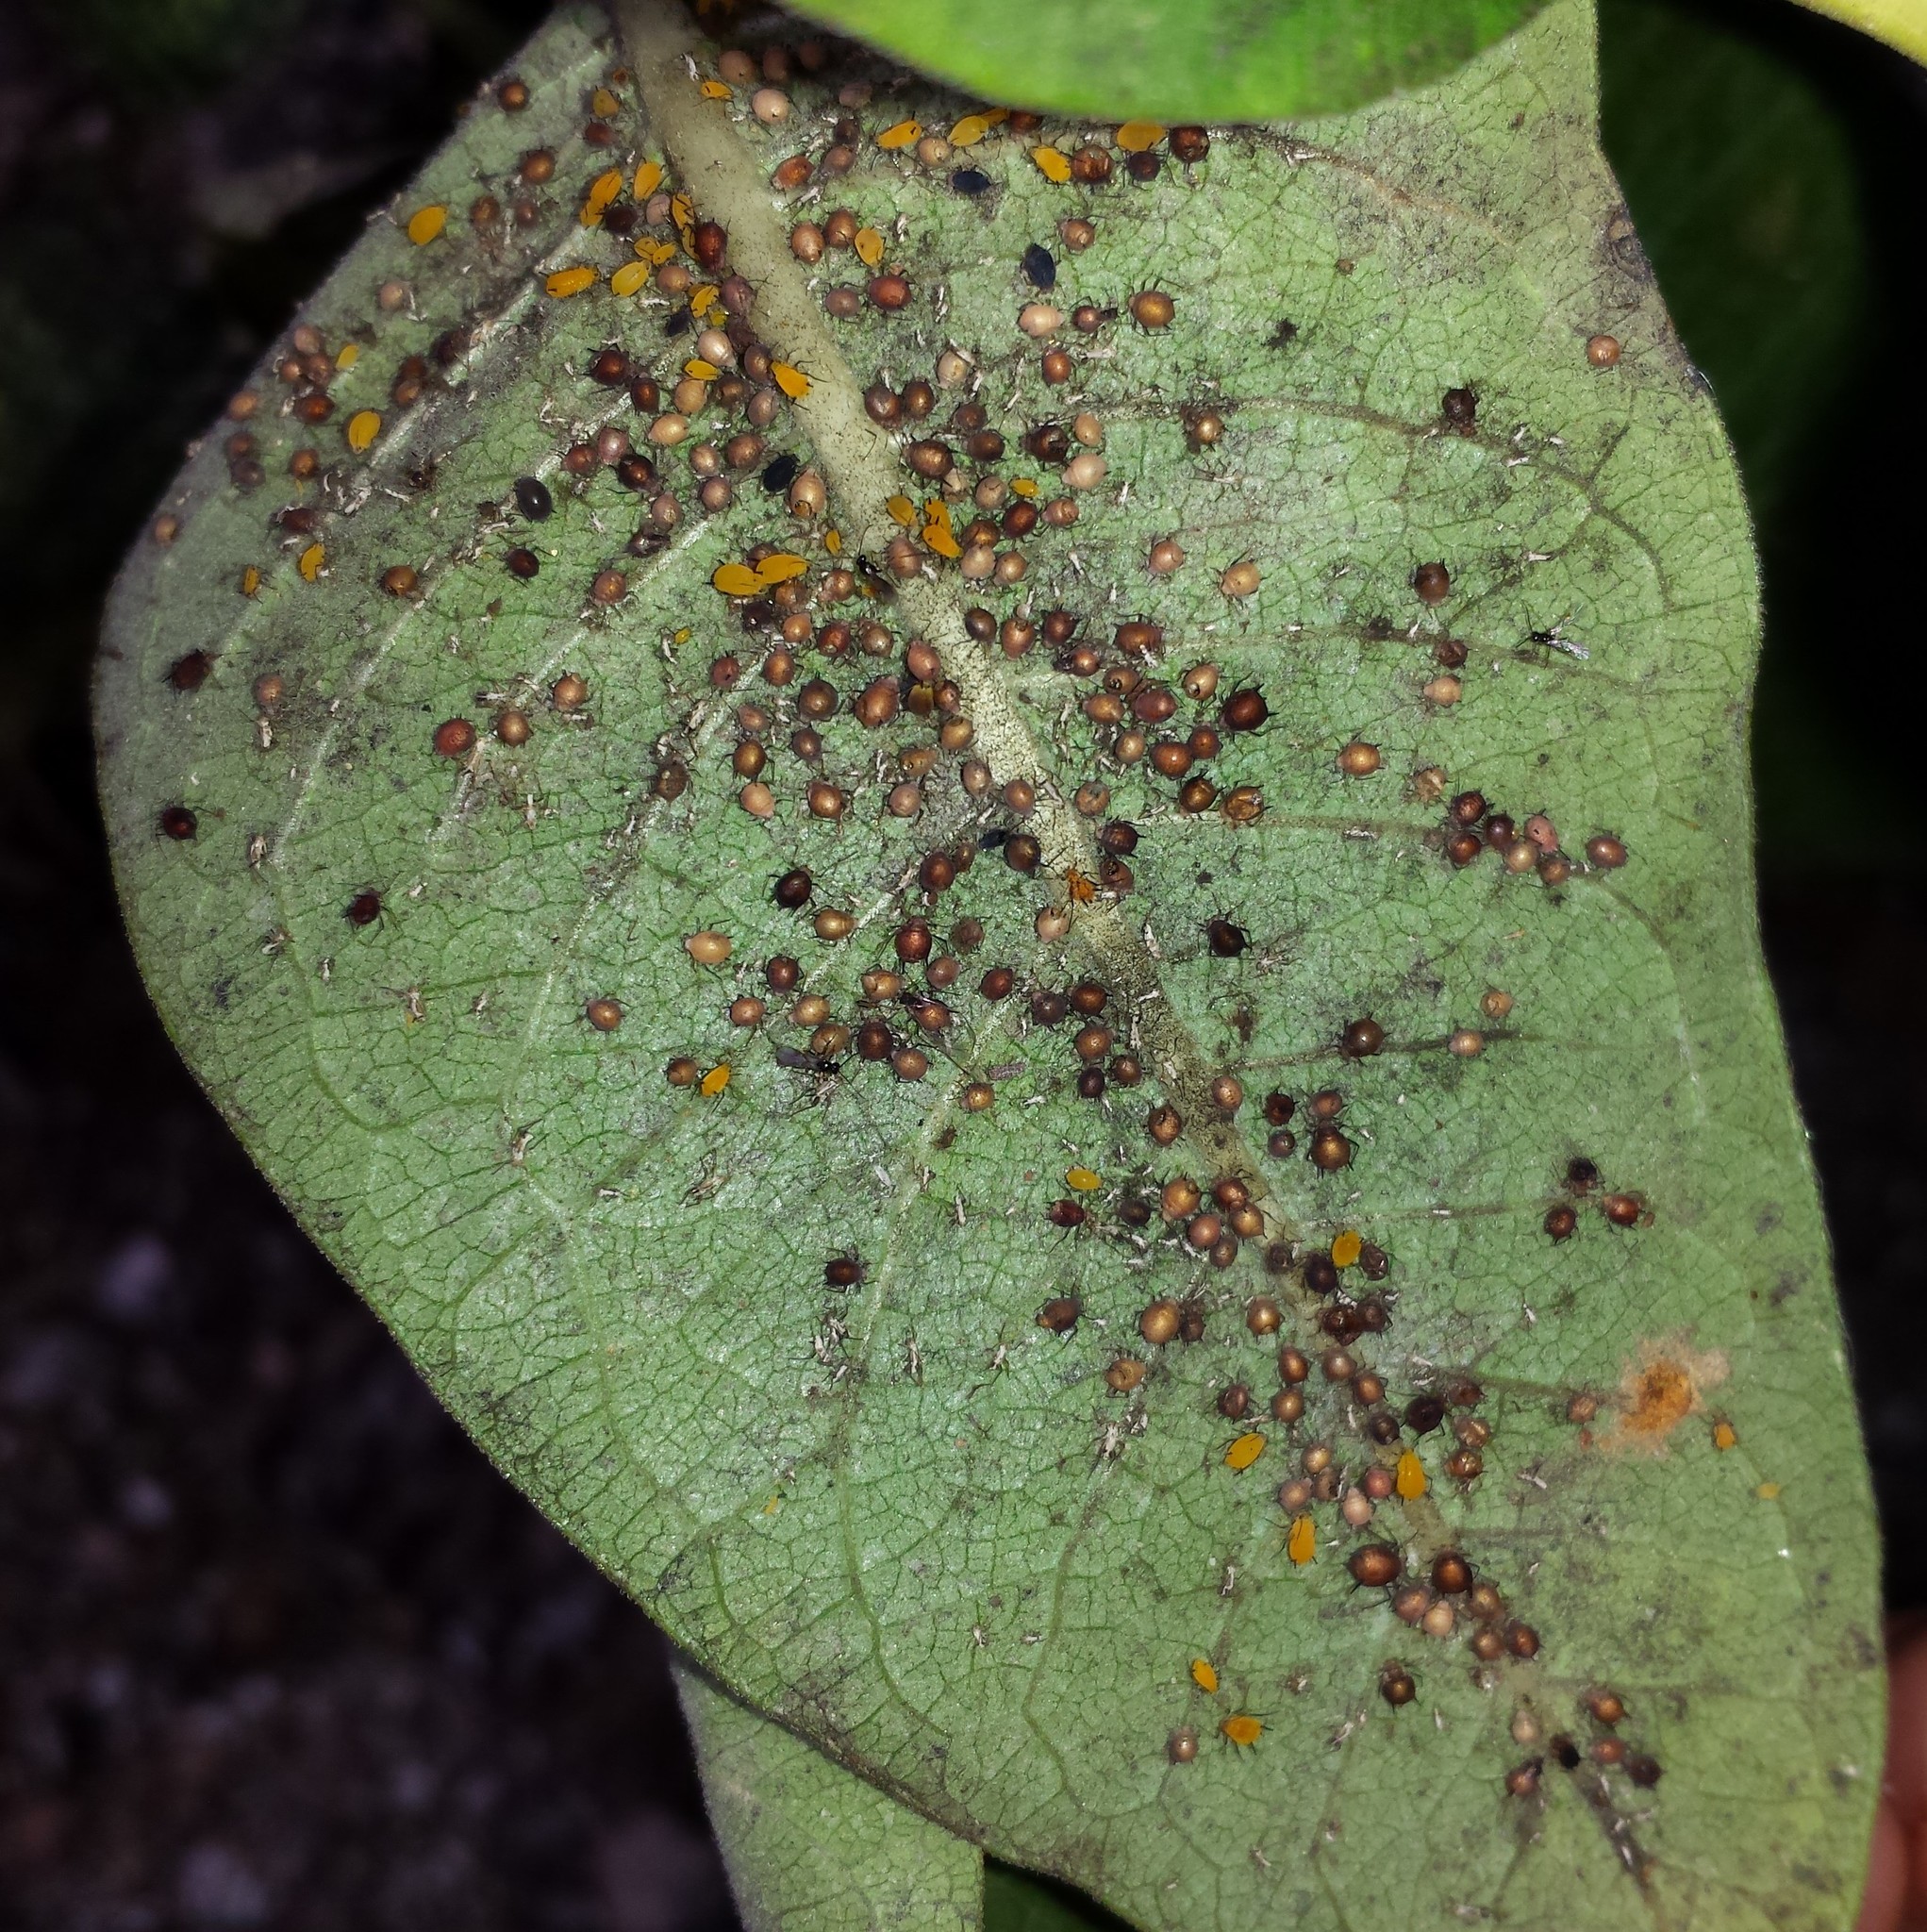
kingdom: Animalia
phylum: Arthropoda
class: Insecta
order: Hemiptera
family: Aphididae
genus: Aphis
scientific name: Aphis nerii
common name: Oleander aphid
